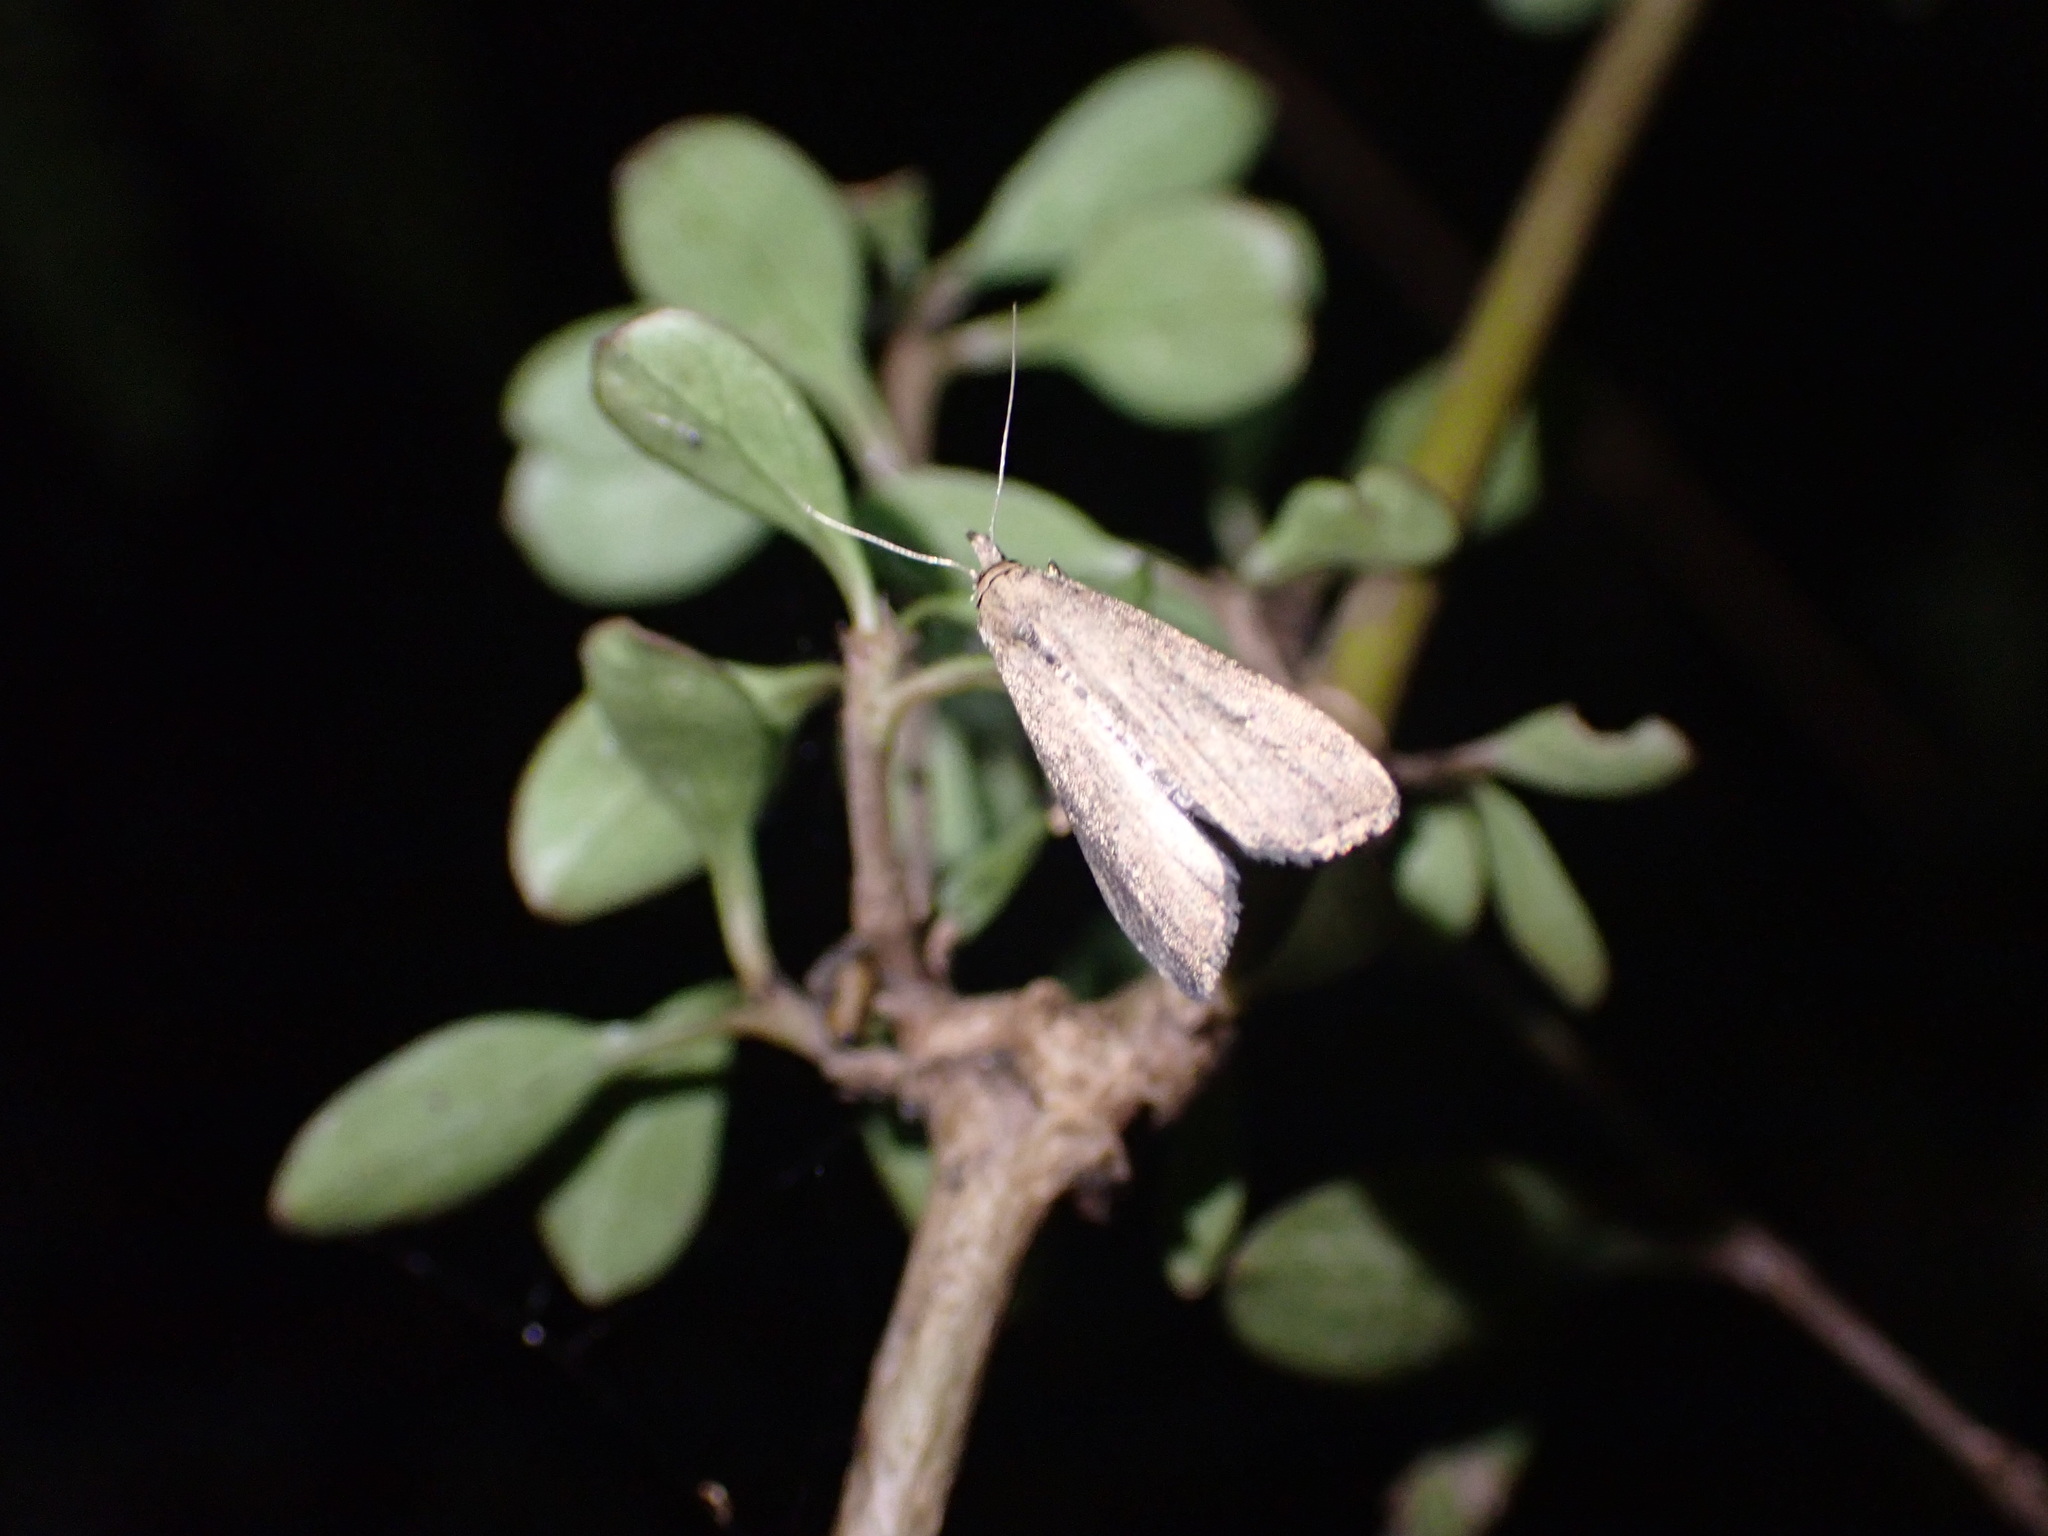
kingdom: Animalia
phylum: Arthropoda
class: Insecta
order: Lepidoptera
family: Erebidae
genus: Schrankia
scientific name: Schrankia costaestrigalis
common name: Pinion-streaked snout
